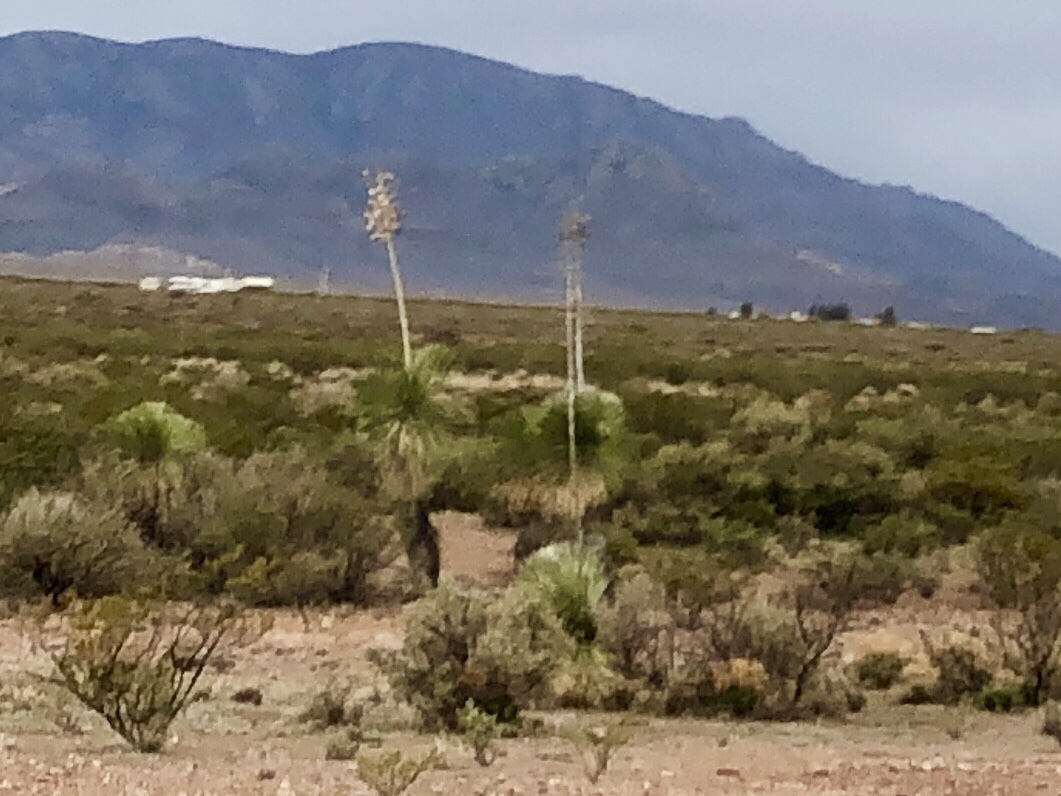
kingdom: Plantae
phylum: Tracheophyta
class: Liliopsida
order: Asparagales
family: Asparagaceae
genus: Yucca
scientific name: Yucca elata
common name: Palmella
